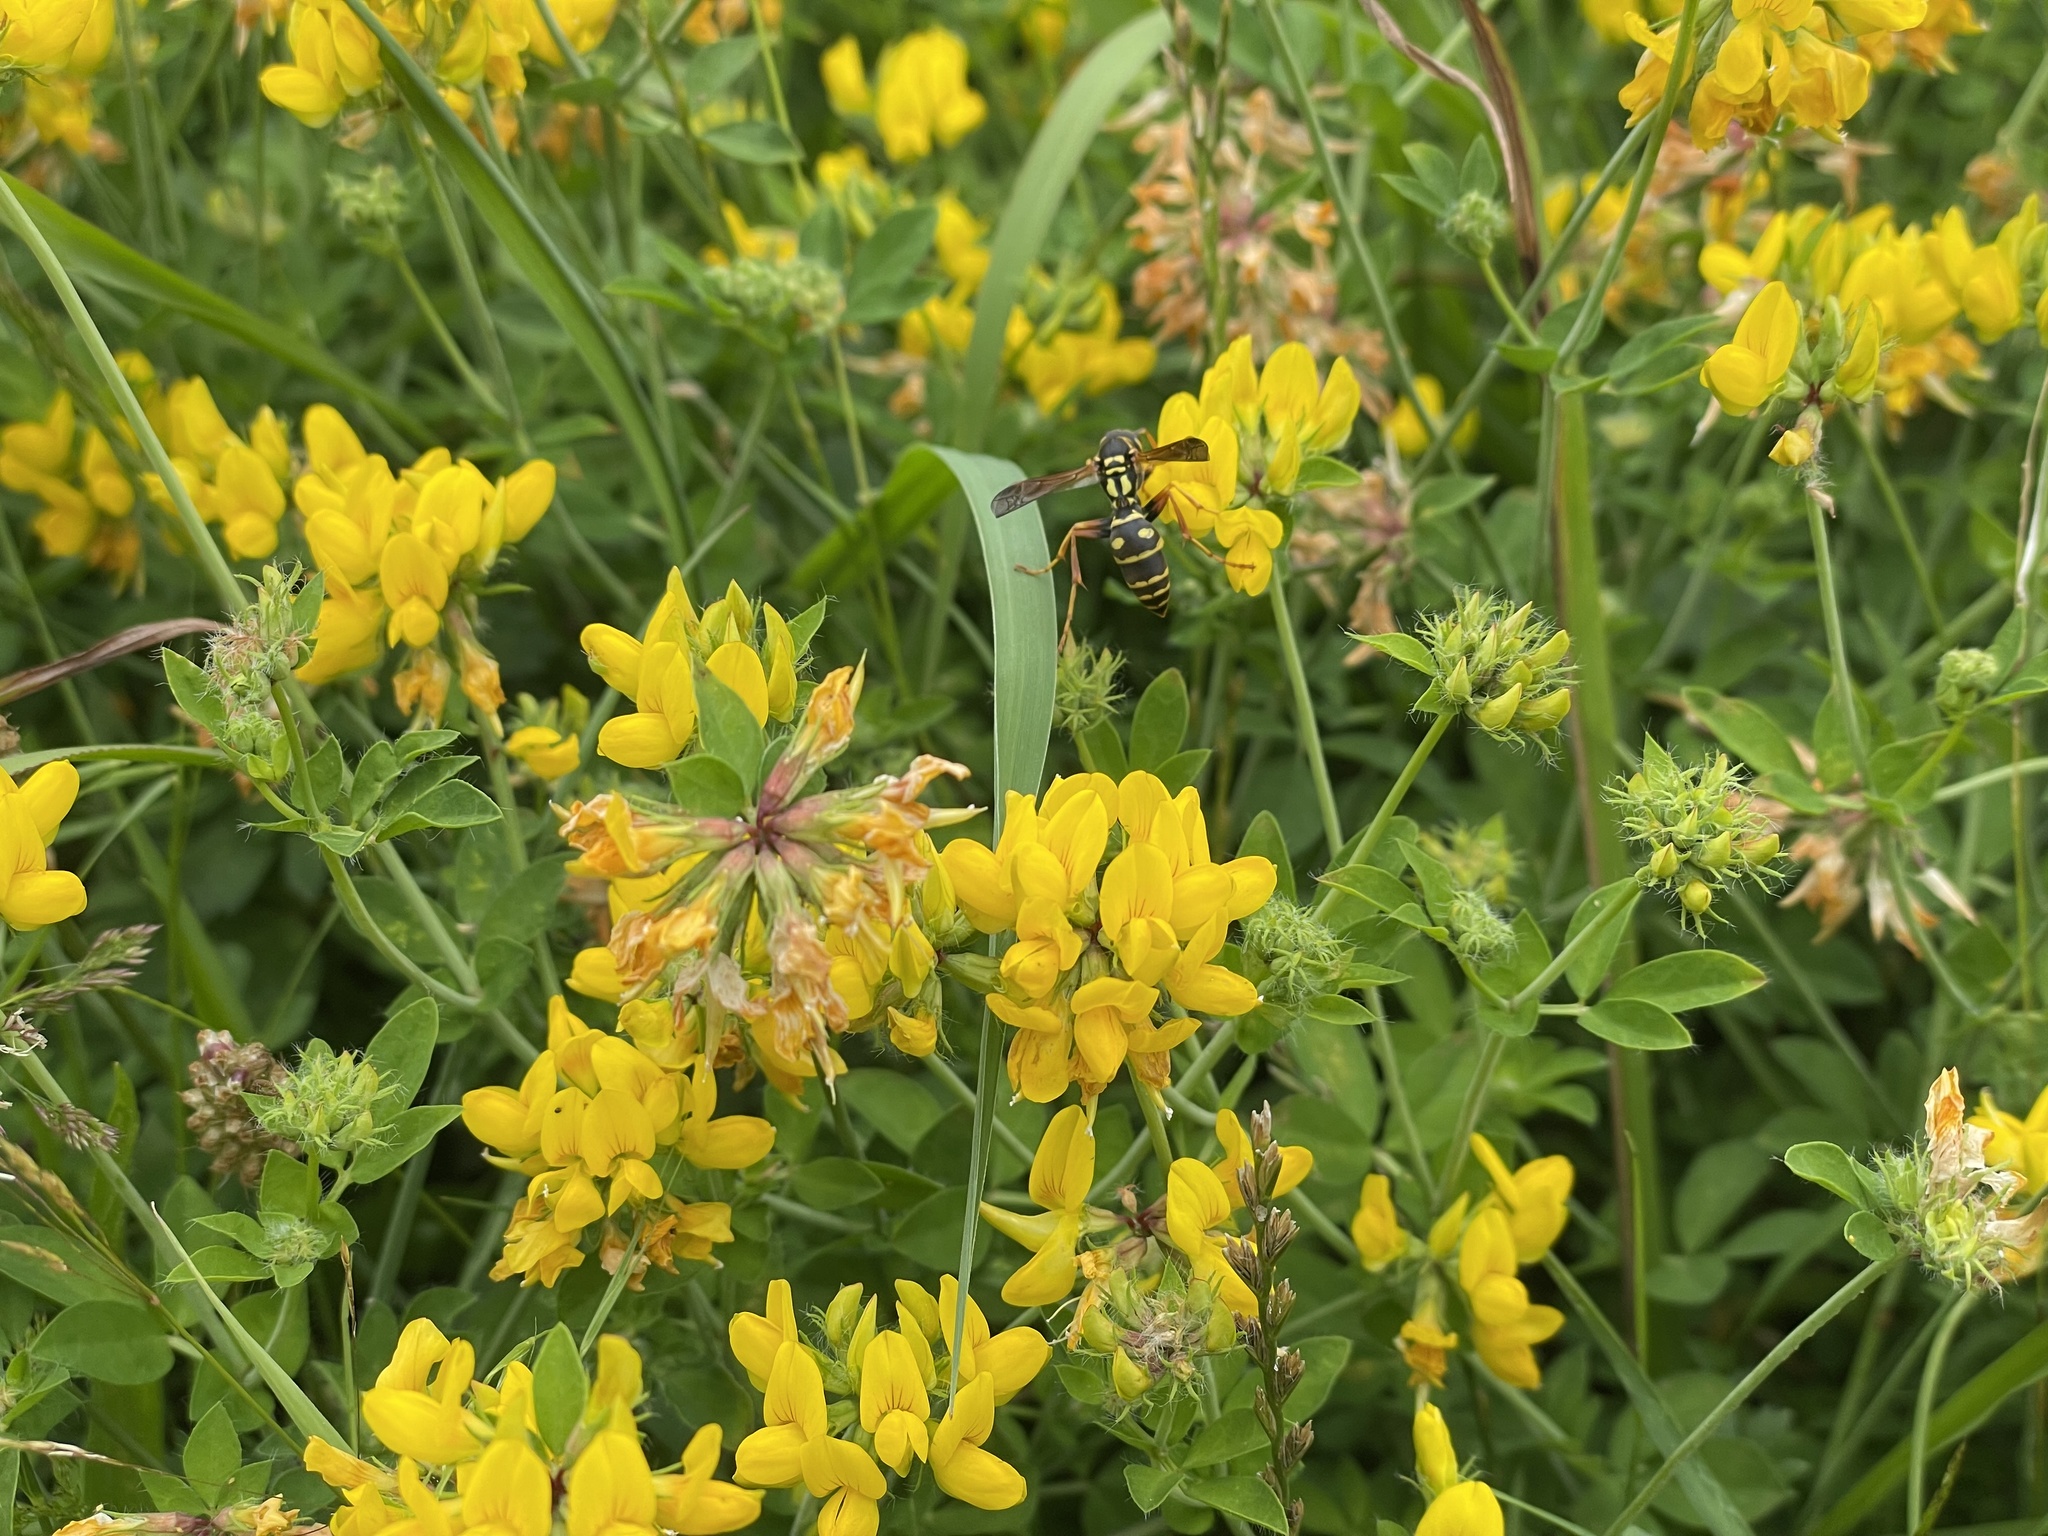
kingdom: Animalia
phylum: Arthropoda
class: Insecta
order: Hymenoptera
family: Eumenidae
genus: Polistes
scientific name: Polistes chinensis
